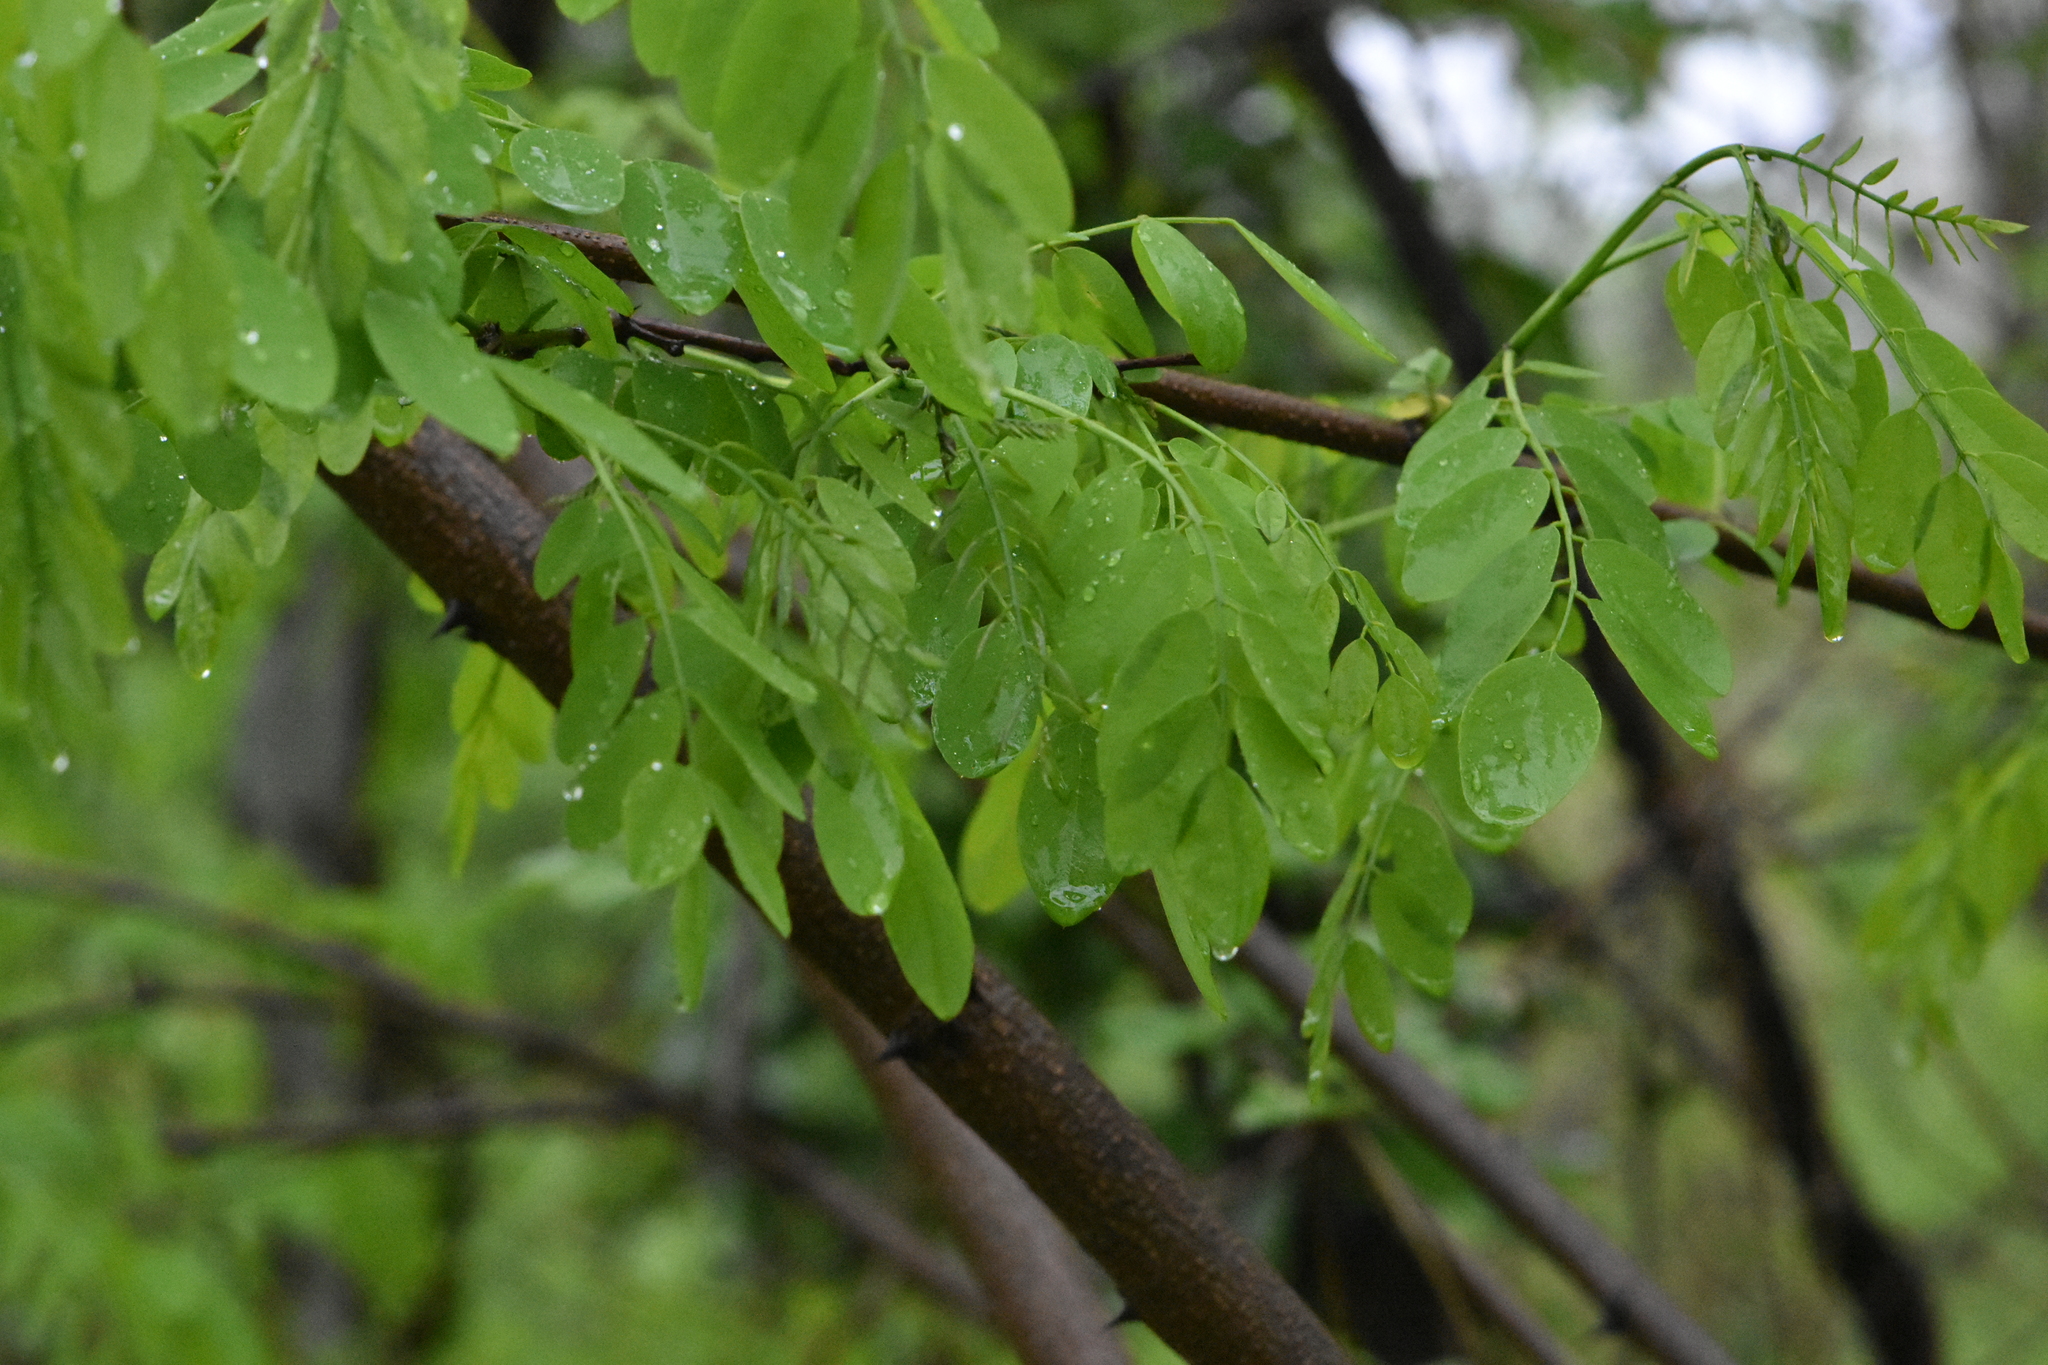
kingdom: Plantae
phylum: Tracheophyta
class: Magnoliopsida
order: Fabales
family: Fabaceae
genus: Robinia
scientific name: Robinia pseudoacacia
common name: Black locust
